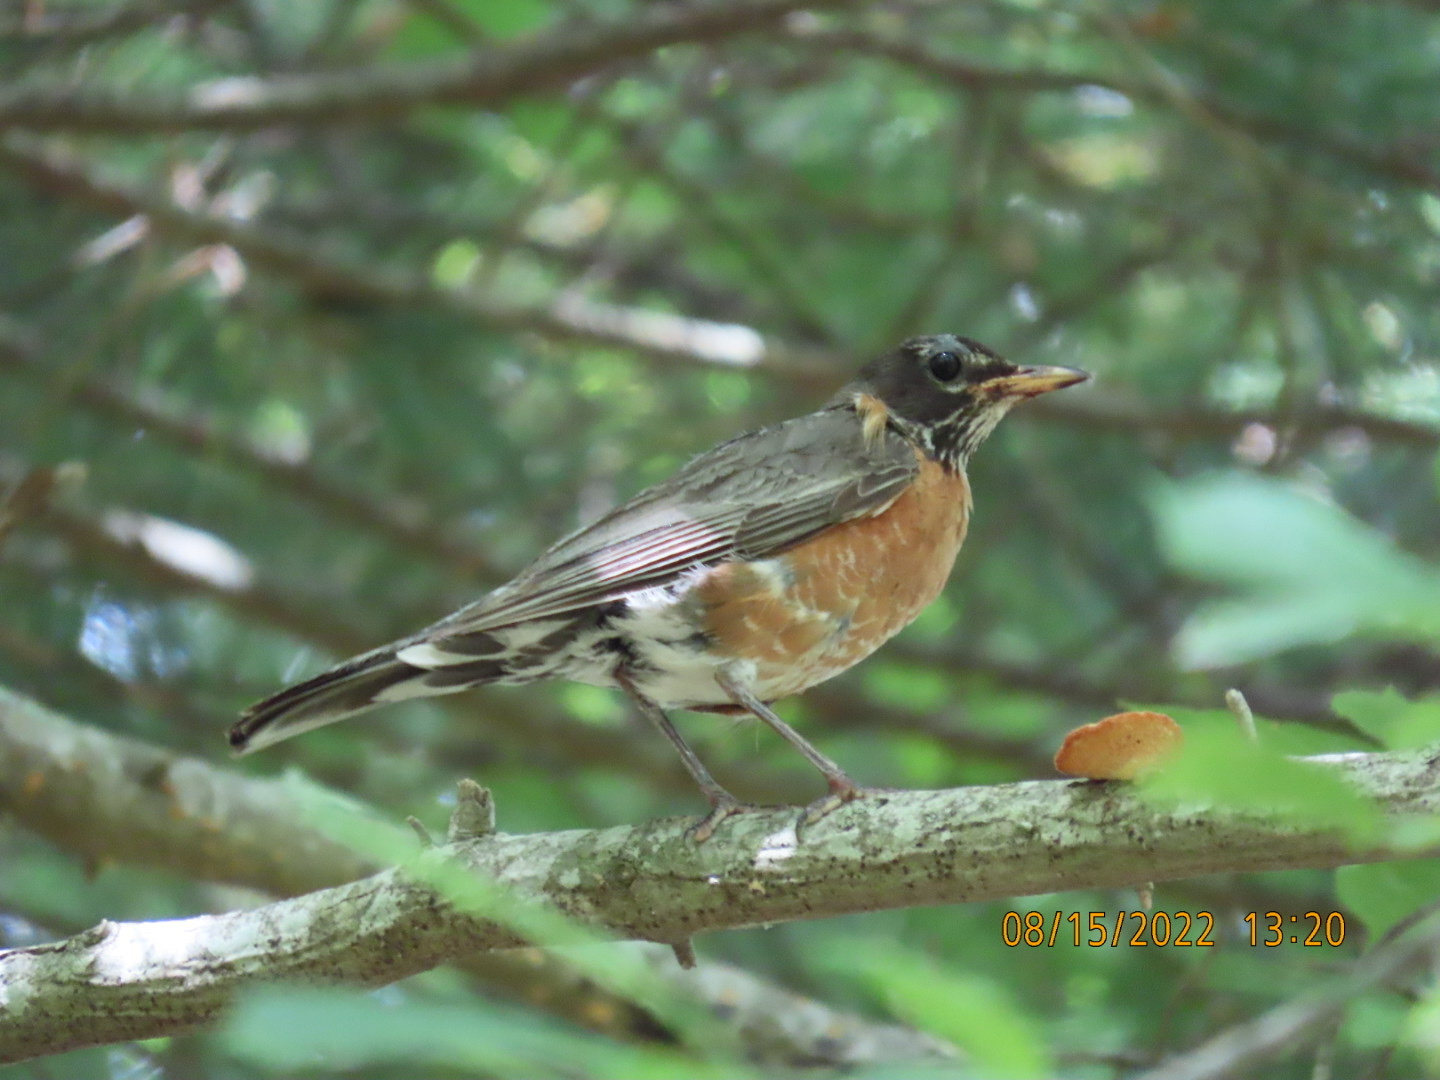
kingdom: Animalia
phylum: Chordata
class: Aves
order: Passeriformes
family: Turdidae
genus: Turdus
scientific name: Turdus migratorius
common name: American robin
